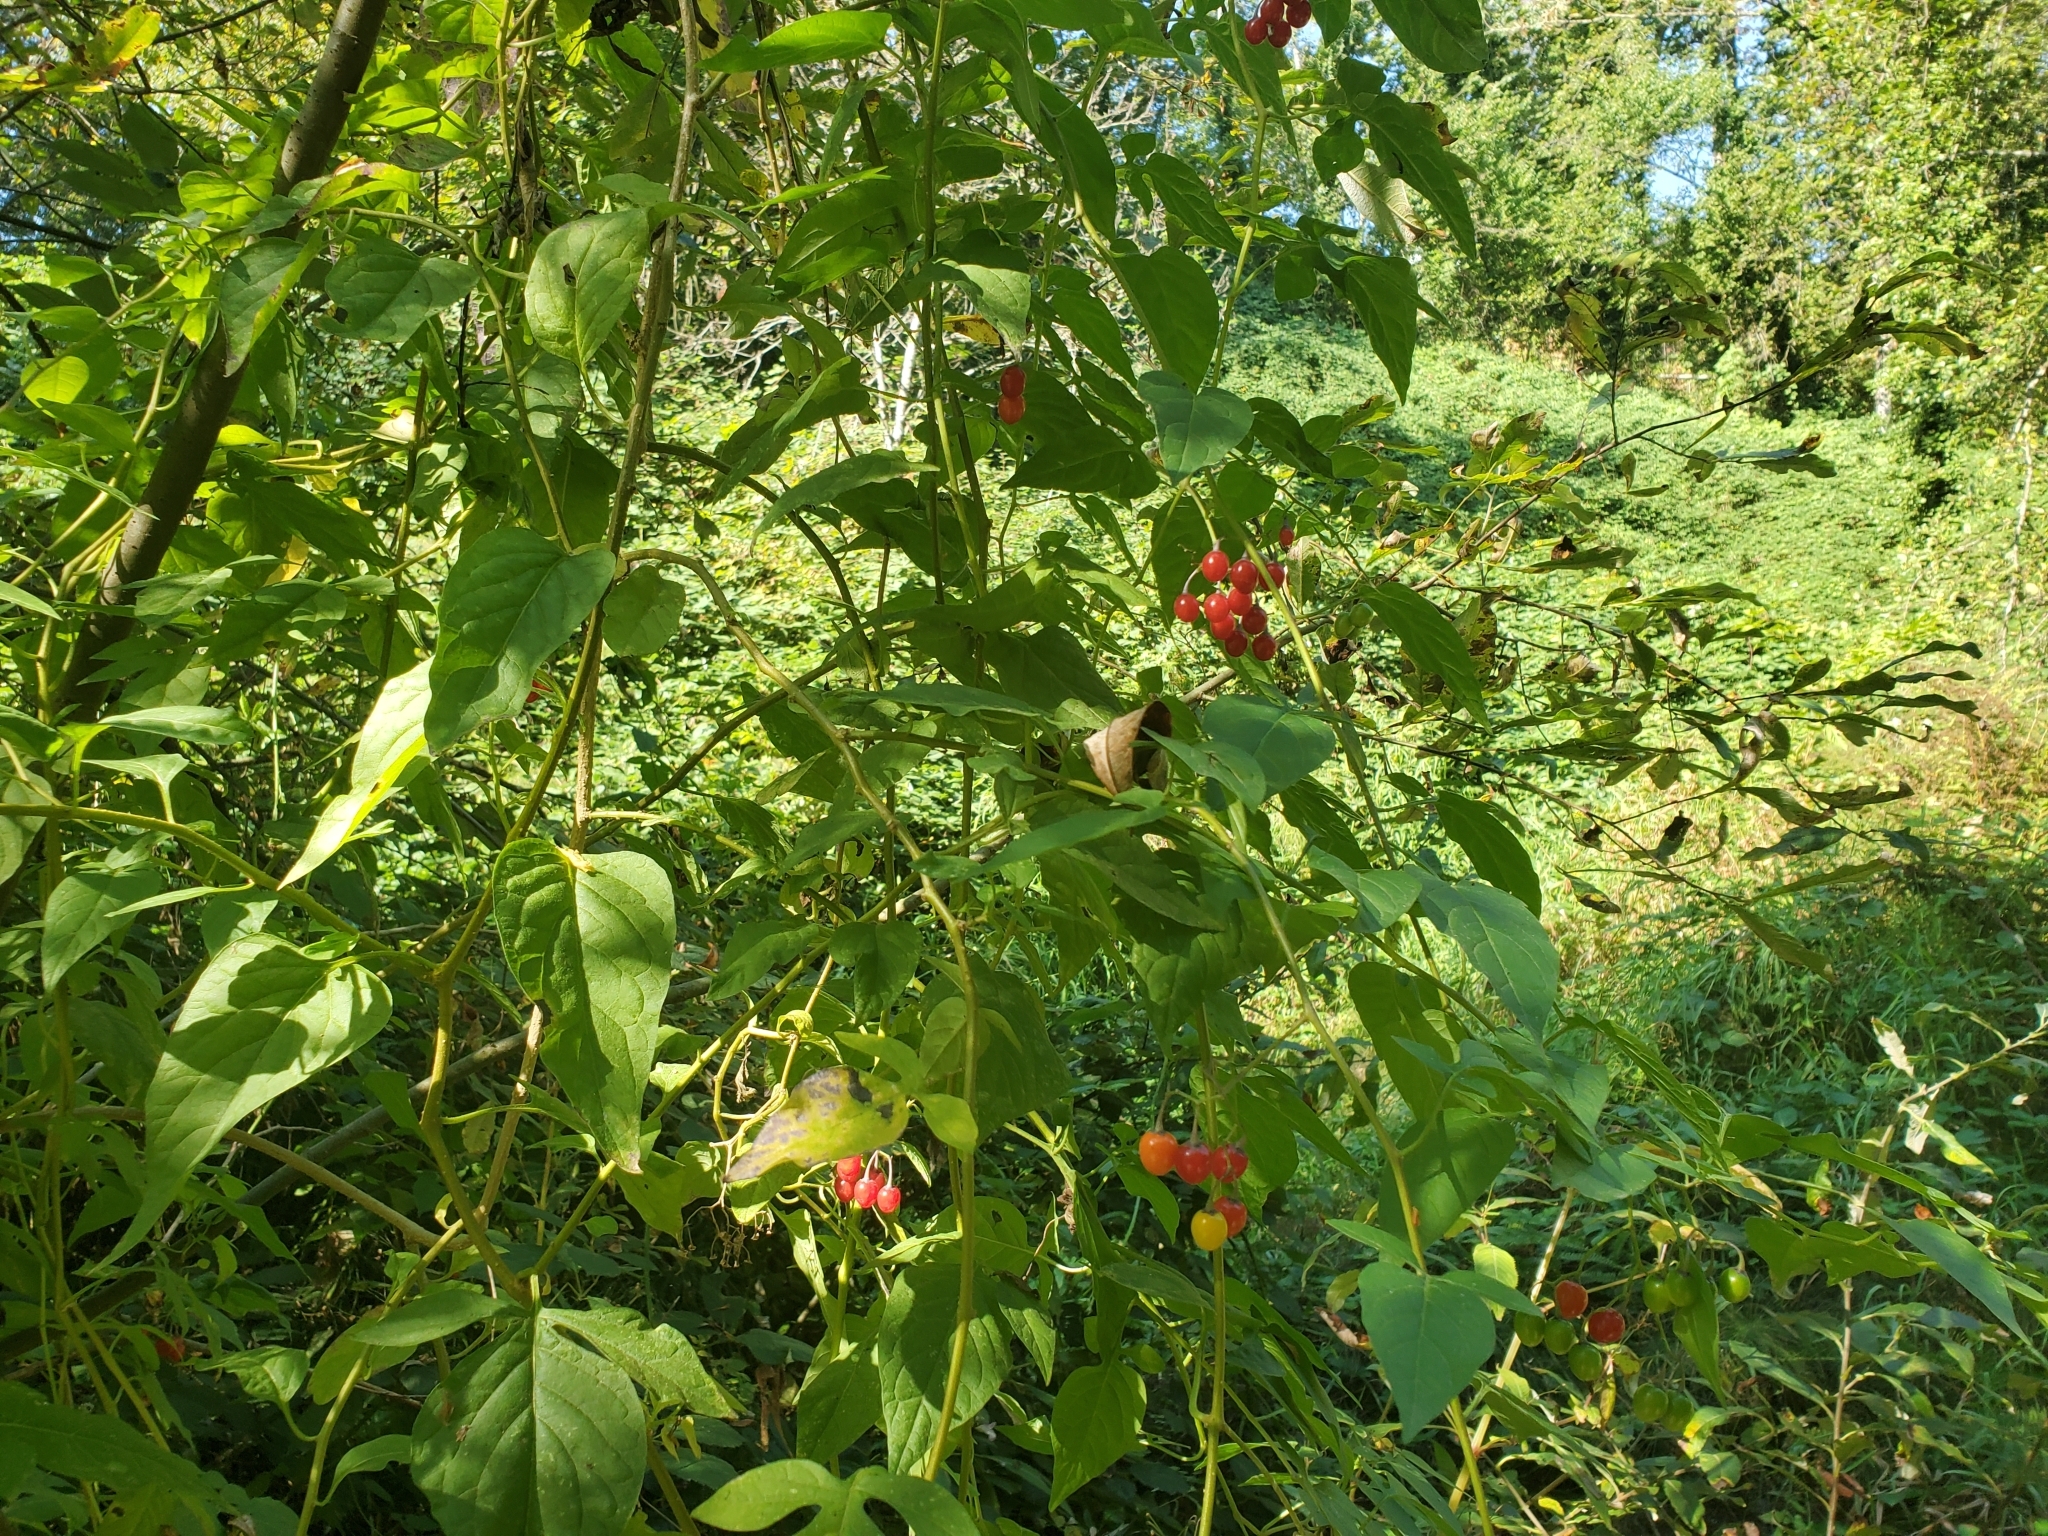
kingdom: Plantae
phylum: Tracheophyta
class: Magnoliopsida
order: Solanales
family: Solanaceae
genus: Solanum
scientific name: Solanum dulcamara
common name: Climbing nightshade
